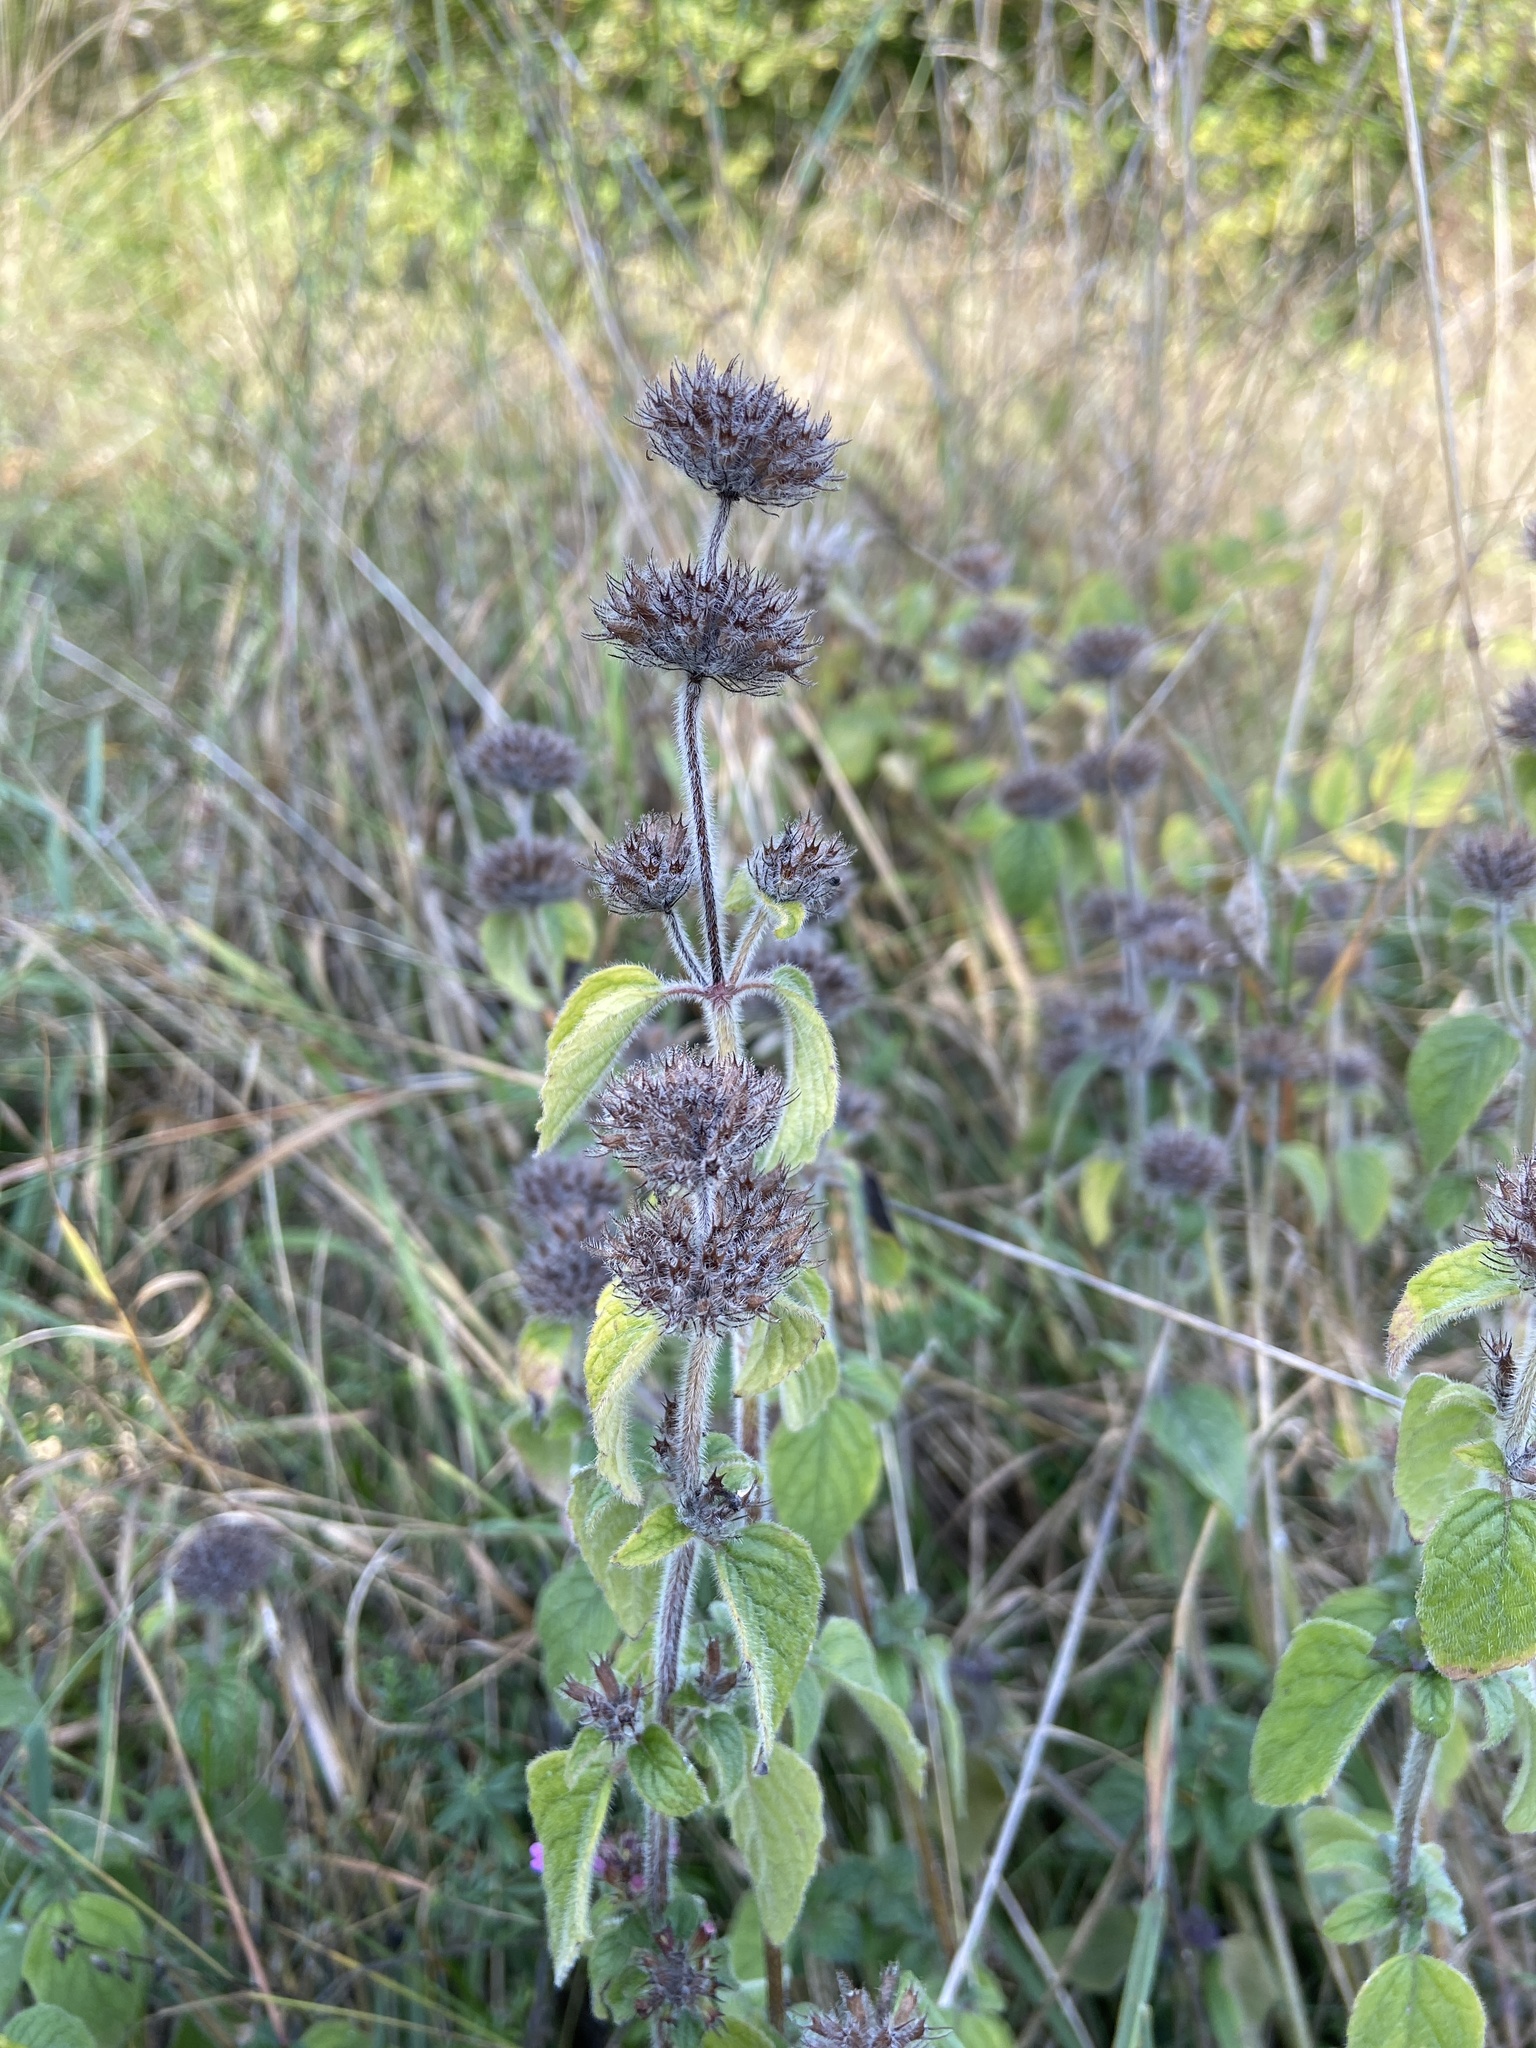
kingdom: Plantae
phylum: Tracheophyta
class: Magnoliopsida
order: Lamiales
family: Lamiaceae
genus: Clinopodium
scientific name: Clinopodium vulgare
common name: Wild basil
